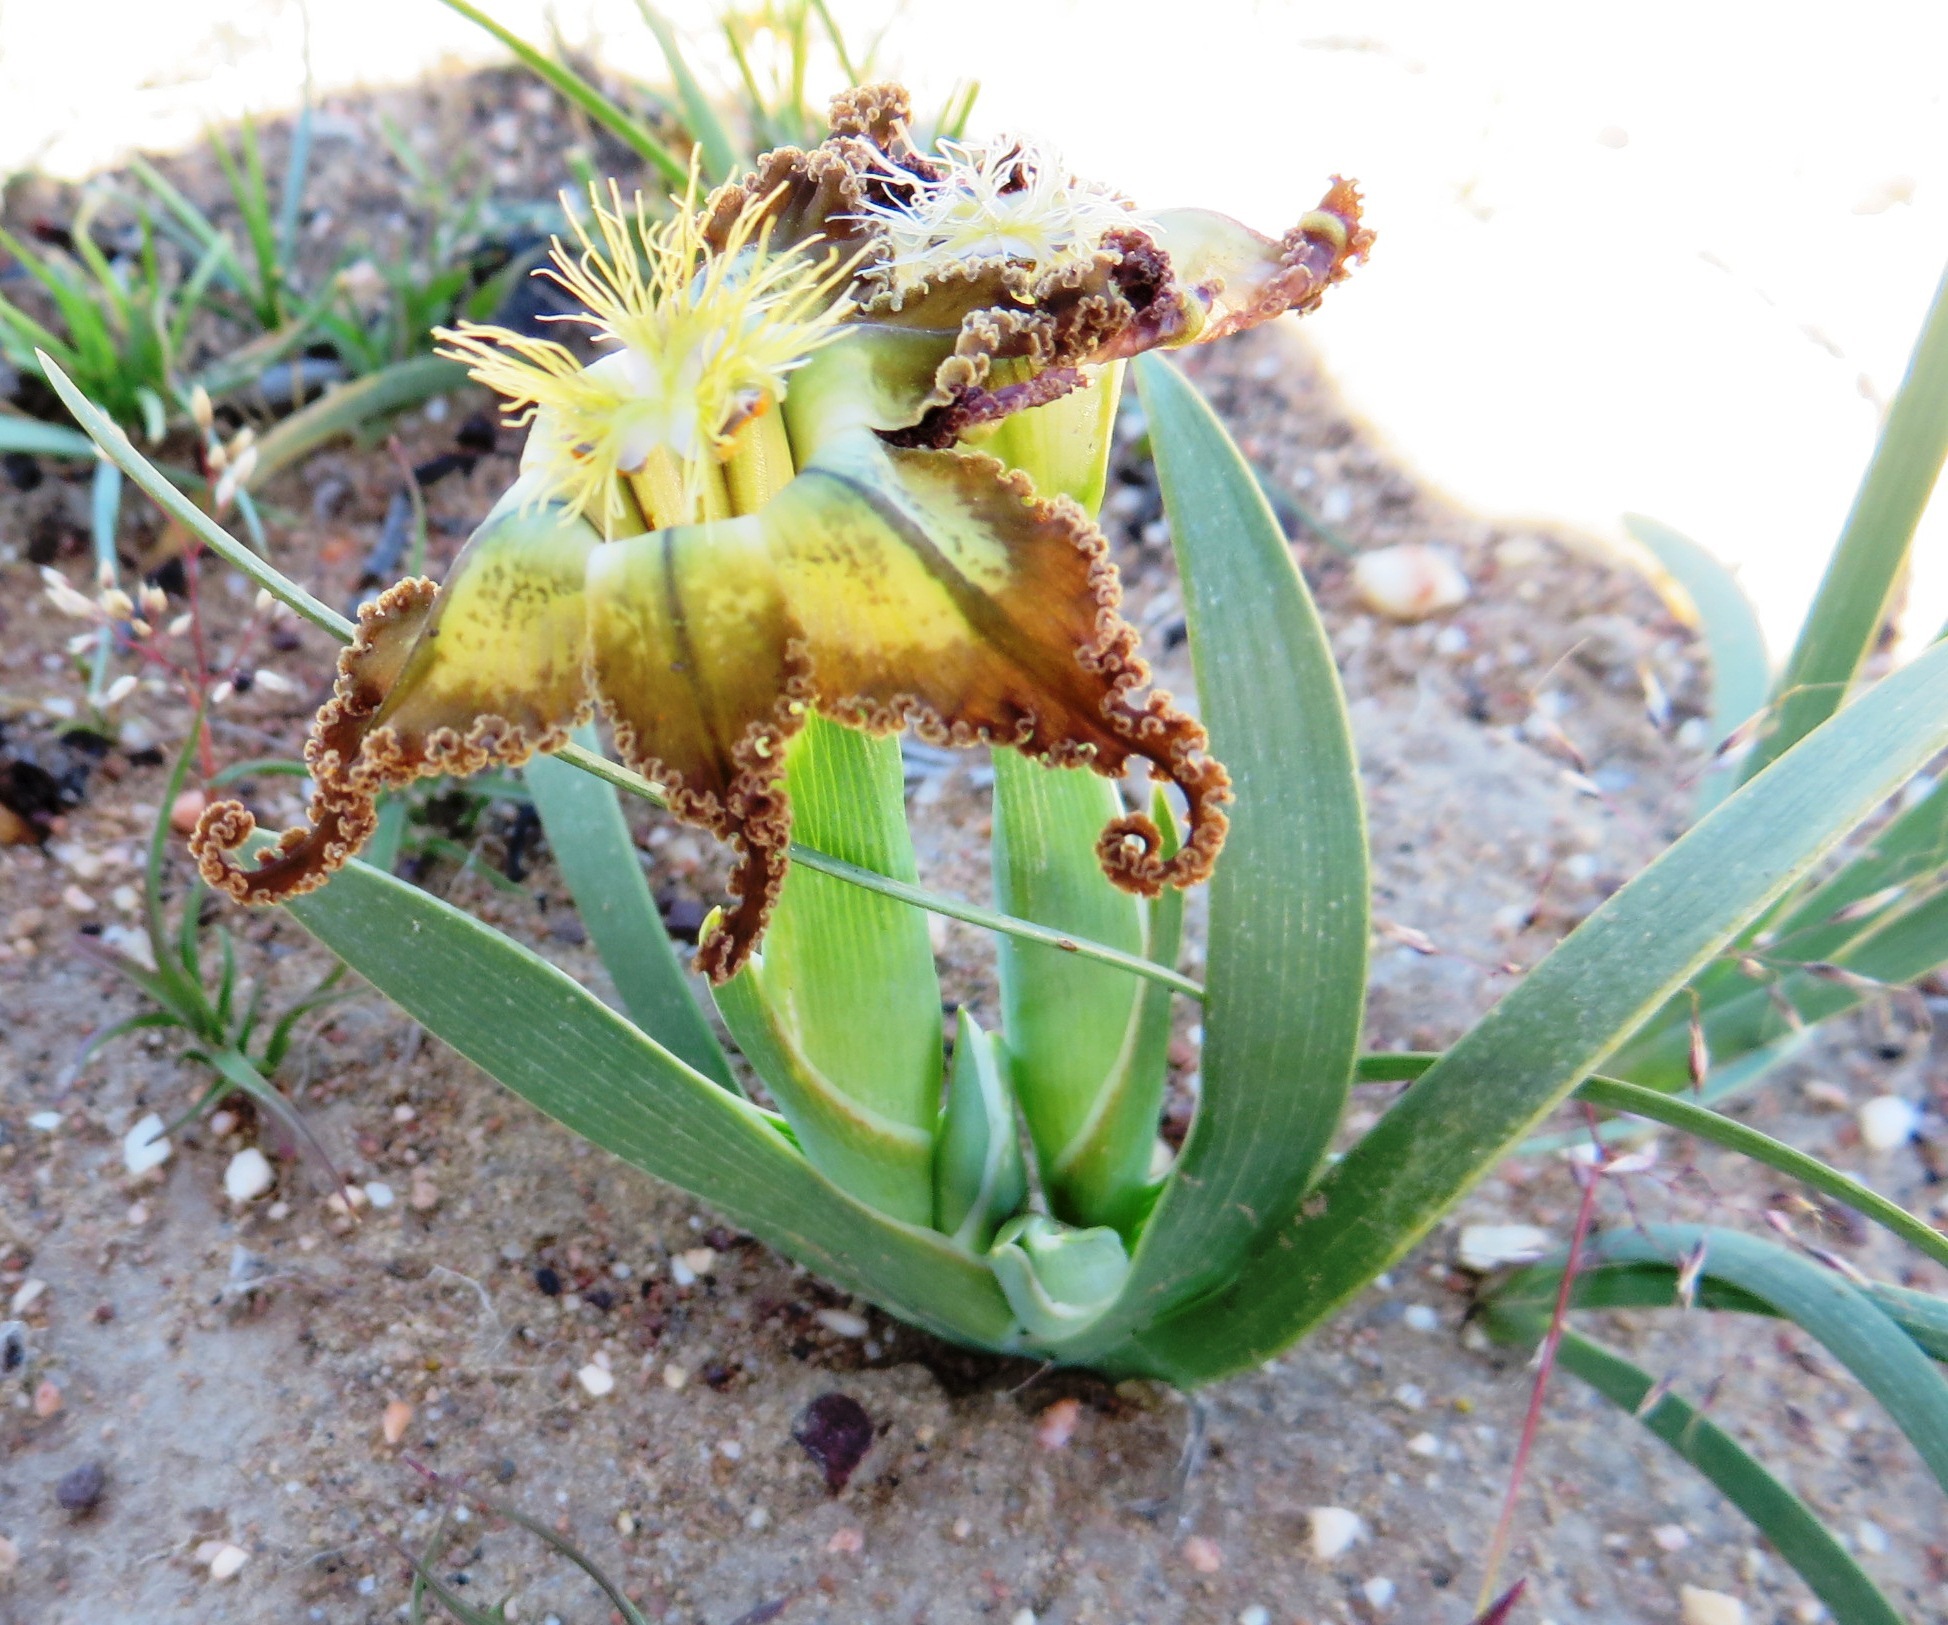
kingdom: Plantae
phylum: Tracheophyta
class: Liliopsida
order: Asparagales
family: Iridaceae
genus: Ferraria
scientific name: Ferraria variabilis
